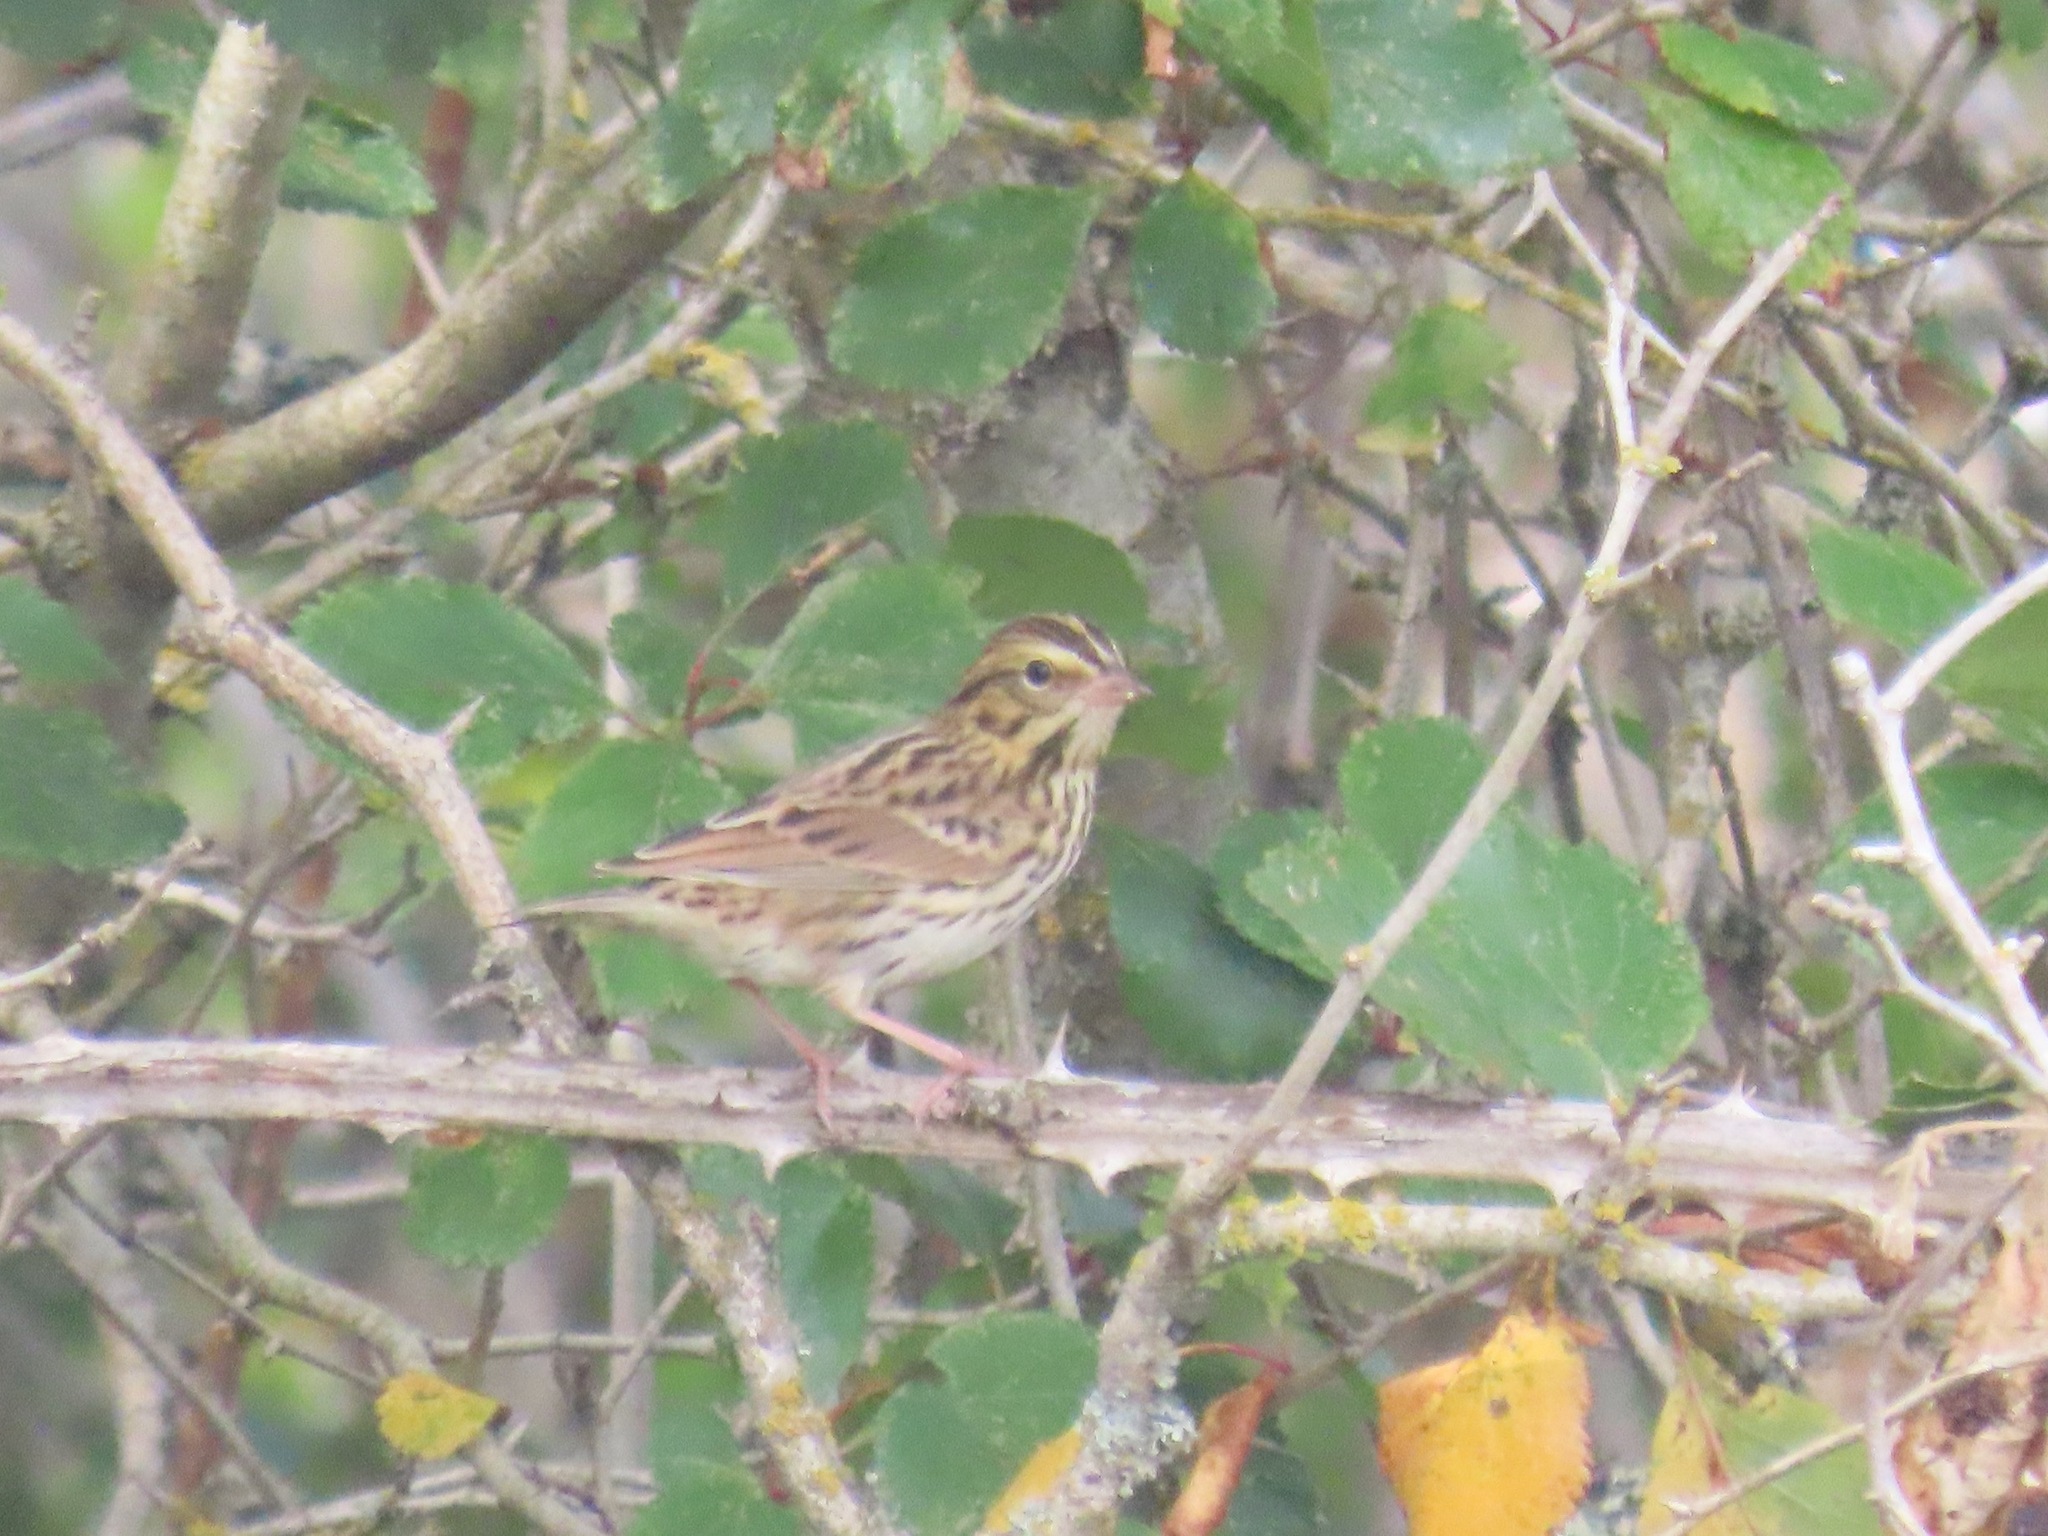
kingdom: Animalia
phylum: Chordata
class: Aves
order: Passeriformes
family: Passerellidae
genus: Passerculus
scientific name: Passerculus sandwichensis
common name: Savannah sparrow
